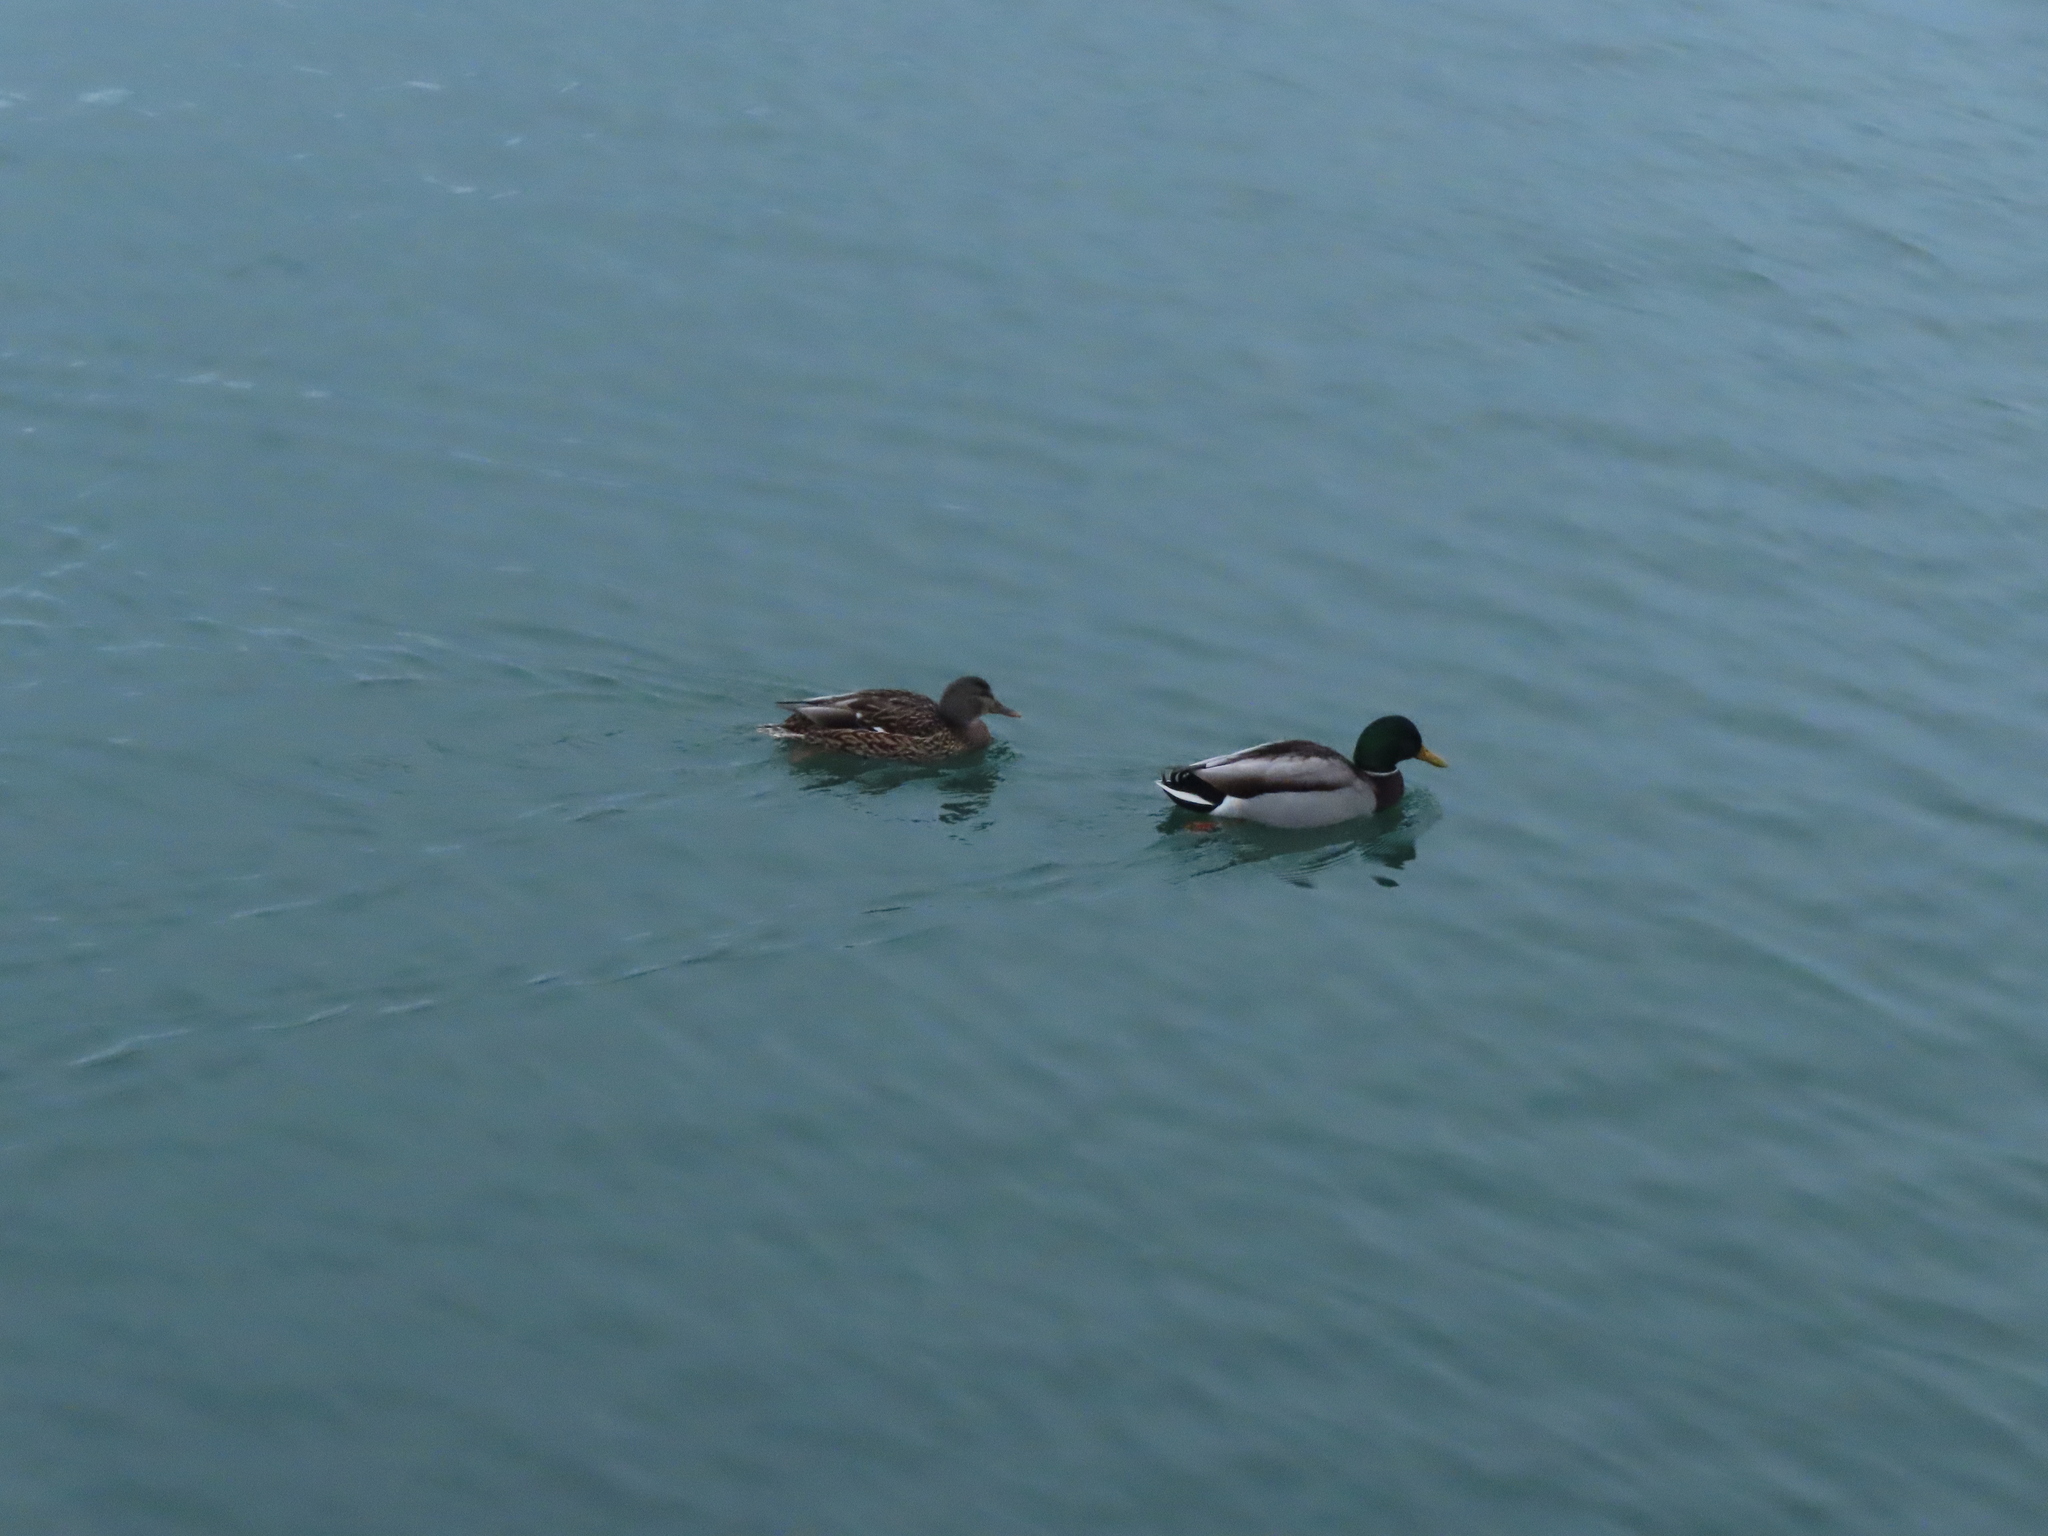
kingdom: Animalia
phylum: Chordata
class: Aves
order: Anseriformes
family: Anatidae
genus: Anas
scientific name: Anas platyrhynchos
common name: Mallard
